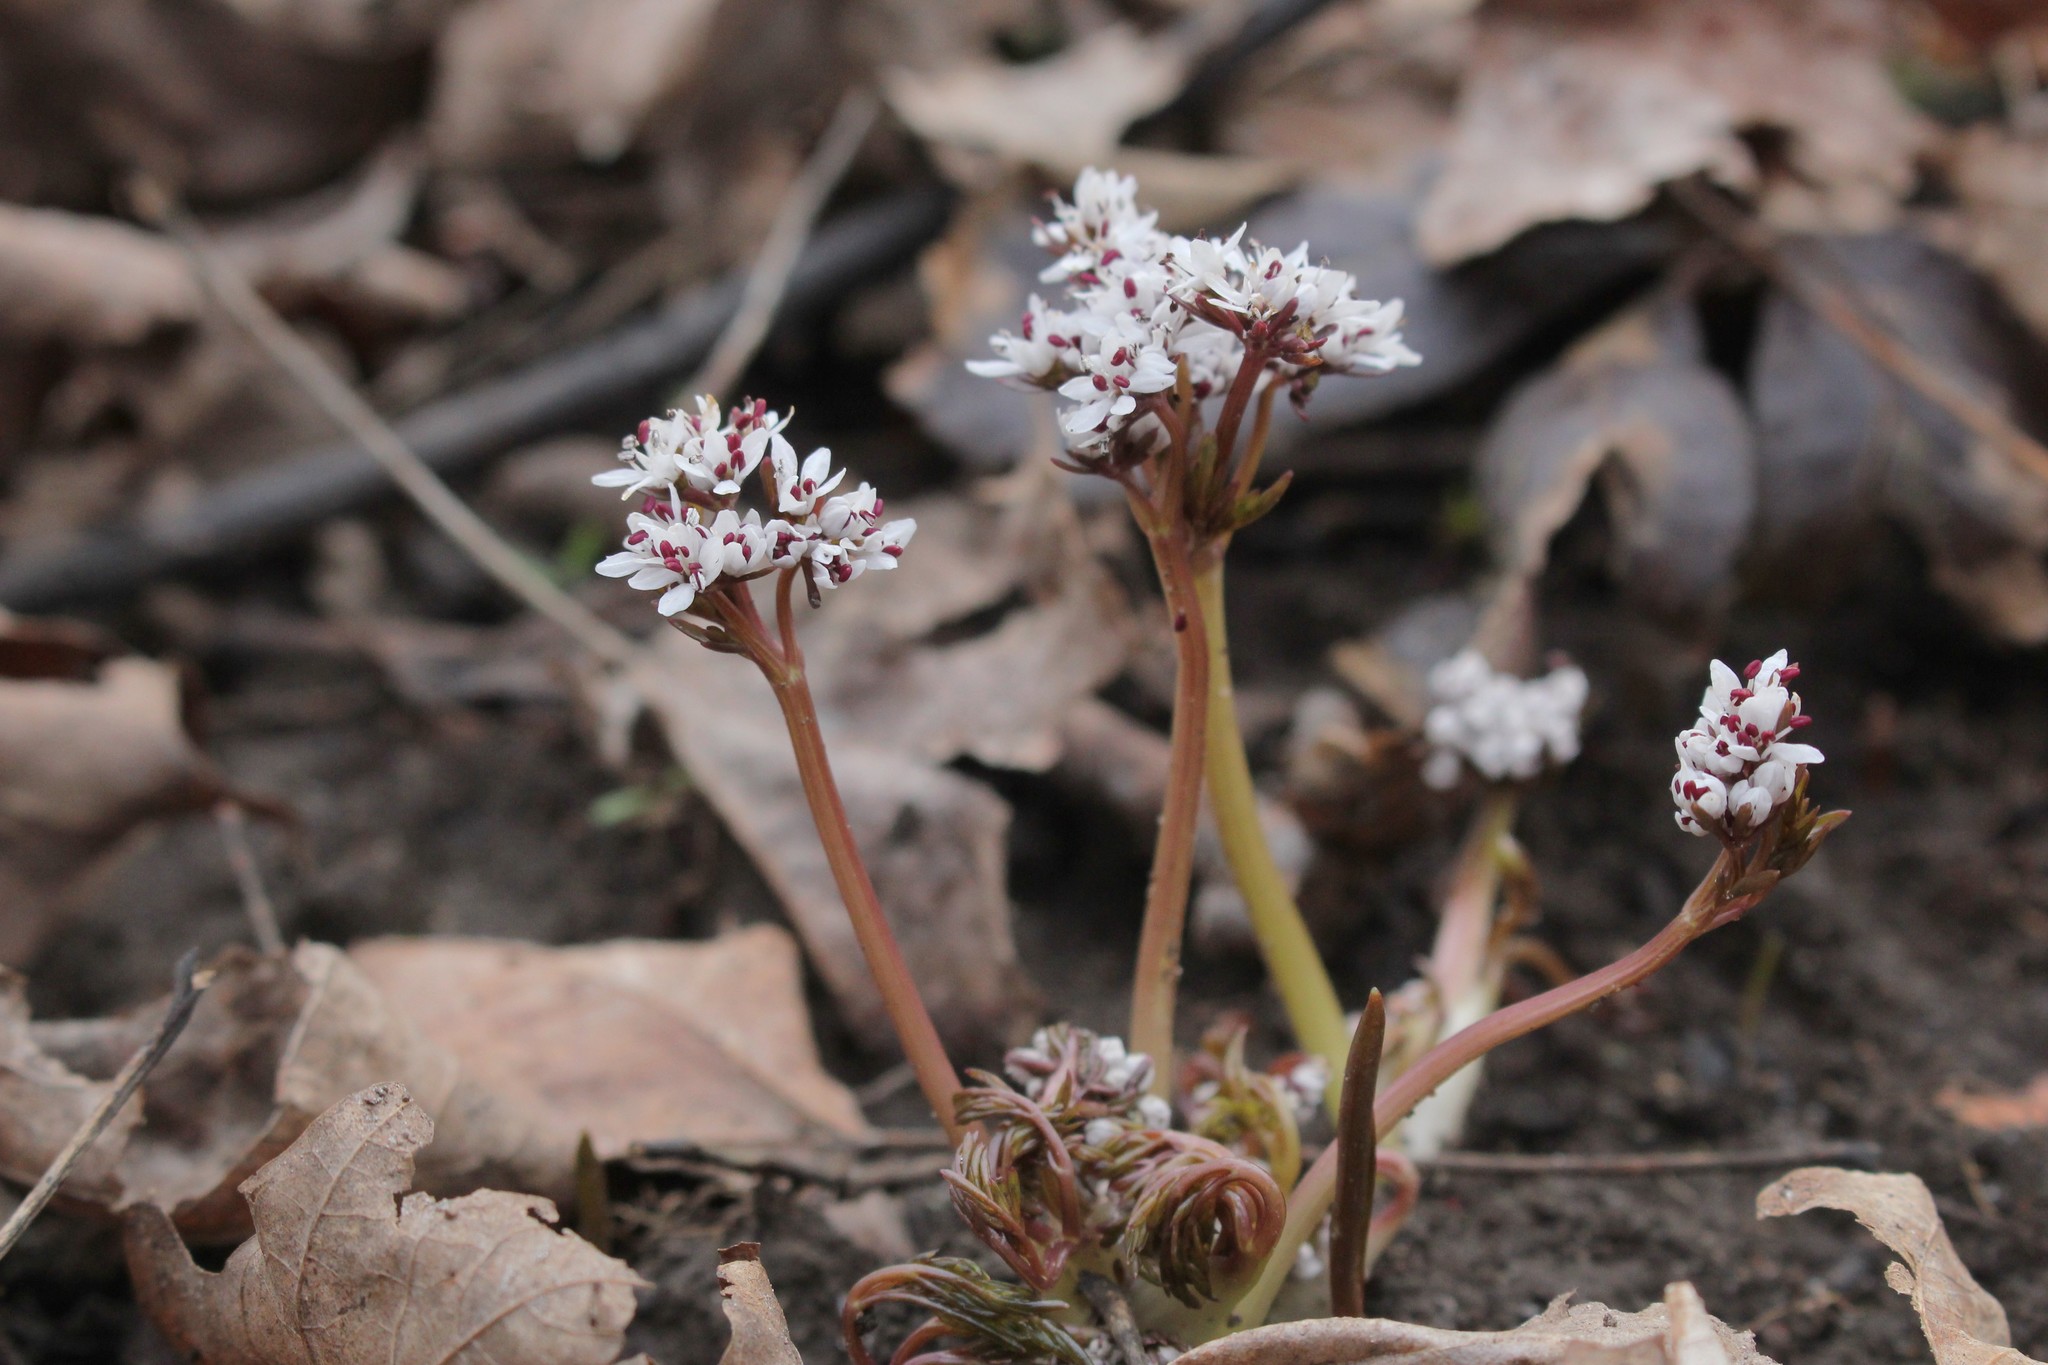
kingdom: Plantae
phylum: Tracheophyta
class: Magnoliopsida
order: Apiales
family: Apiaceae
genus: Erigenia
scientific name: Erigenia bulbosa
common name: Pepper-and-salt
